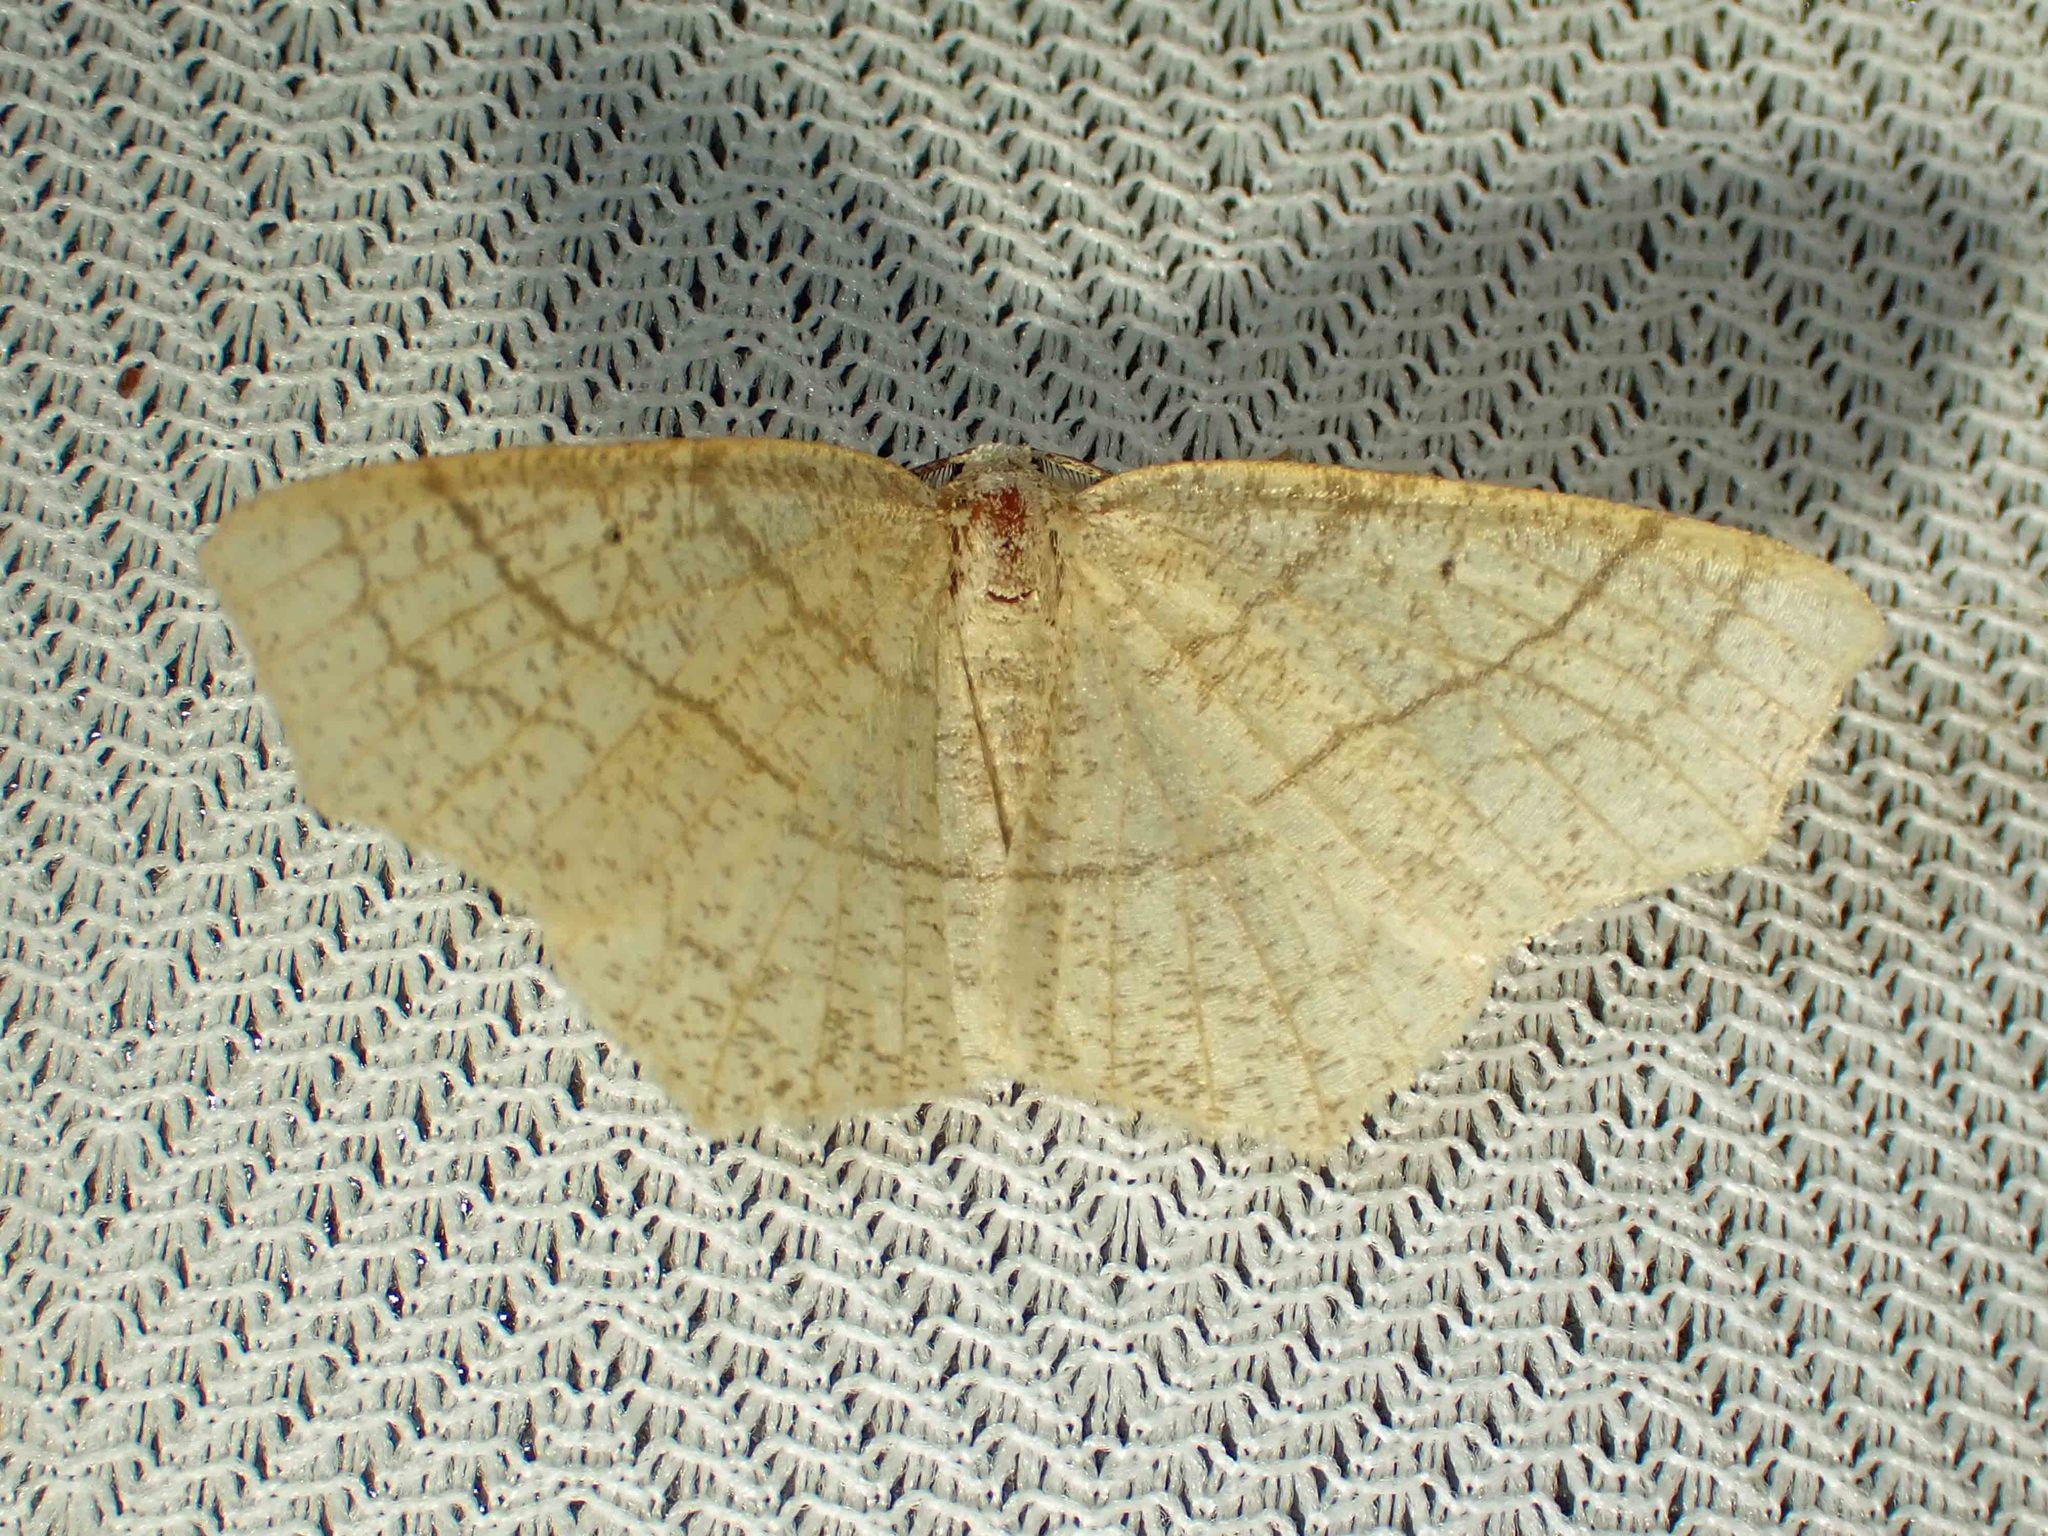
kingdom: Animalia
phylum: Arthropoda
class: Insecta
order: Lepidoptera
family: Geometridae
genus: Besma
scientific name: Besma quercivoraria
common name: Oak besma
